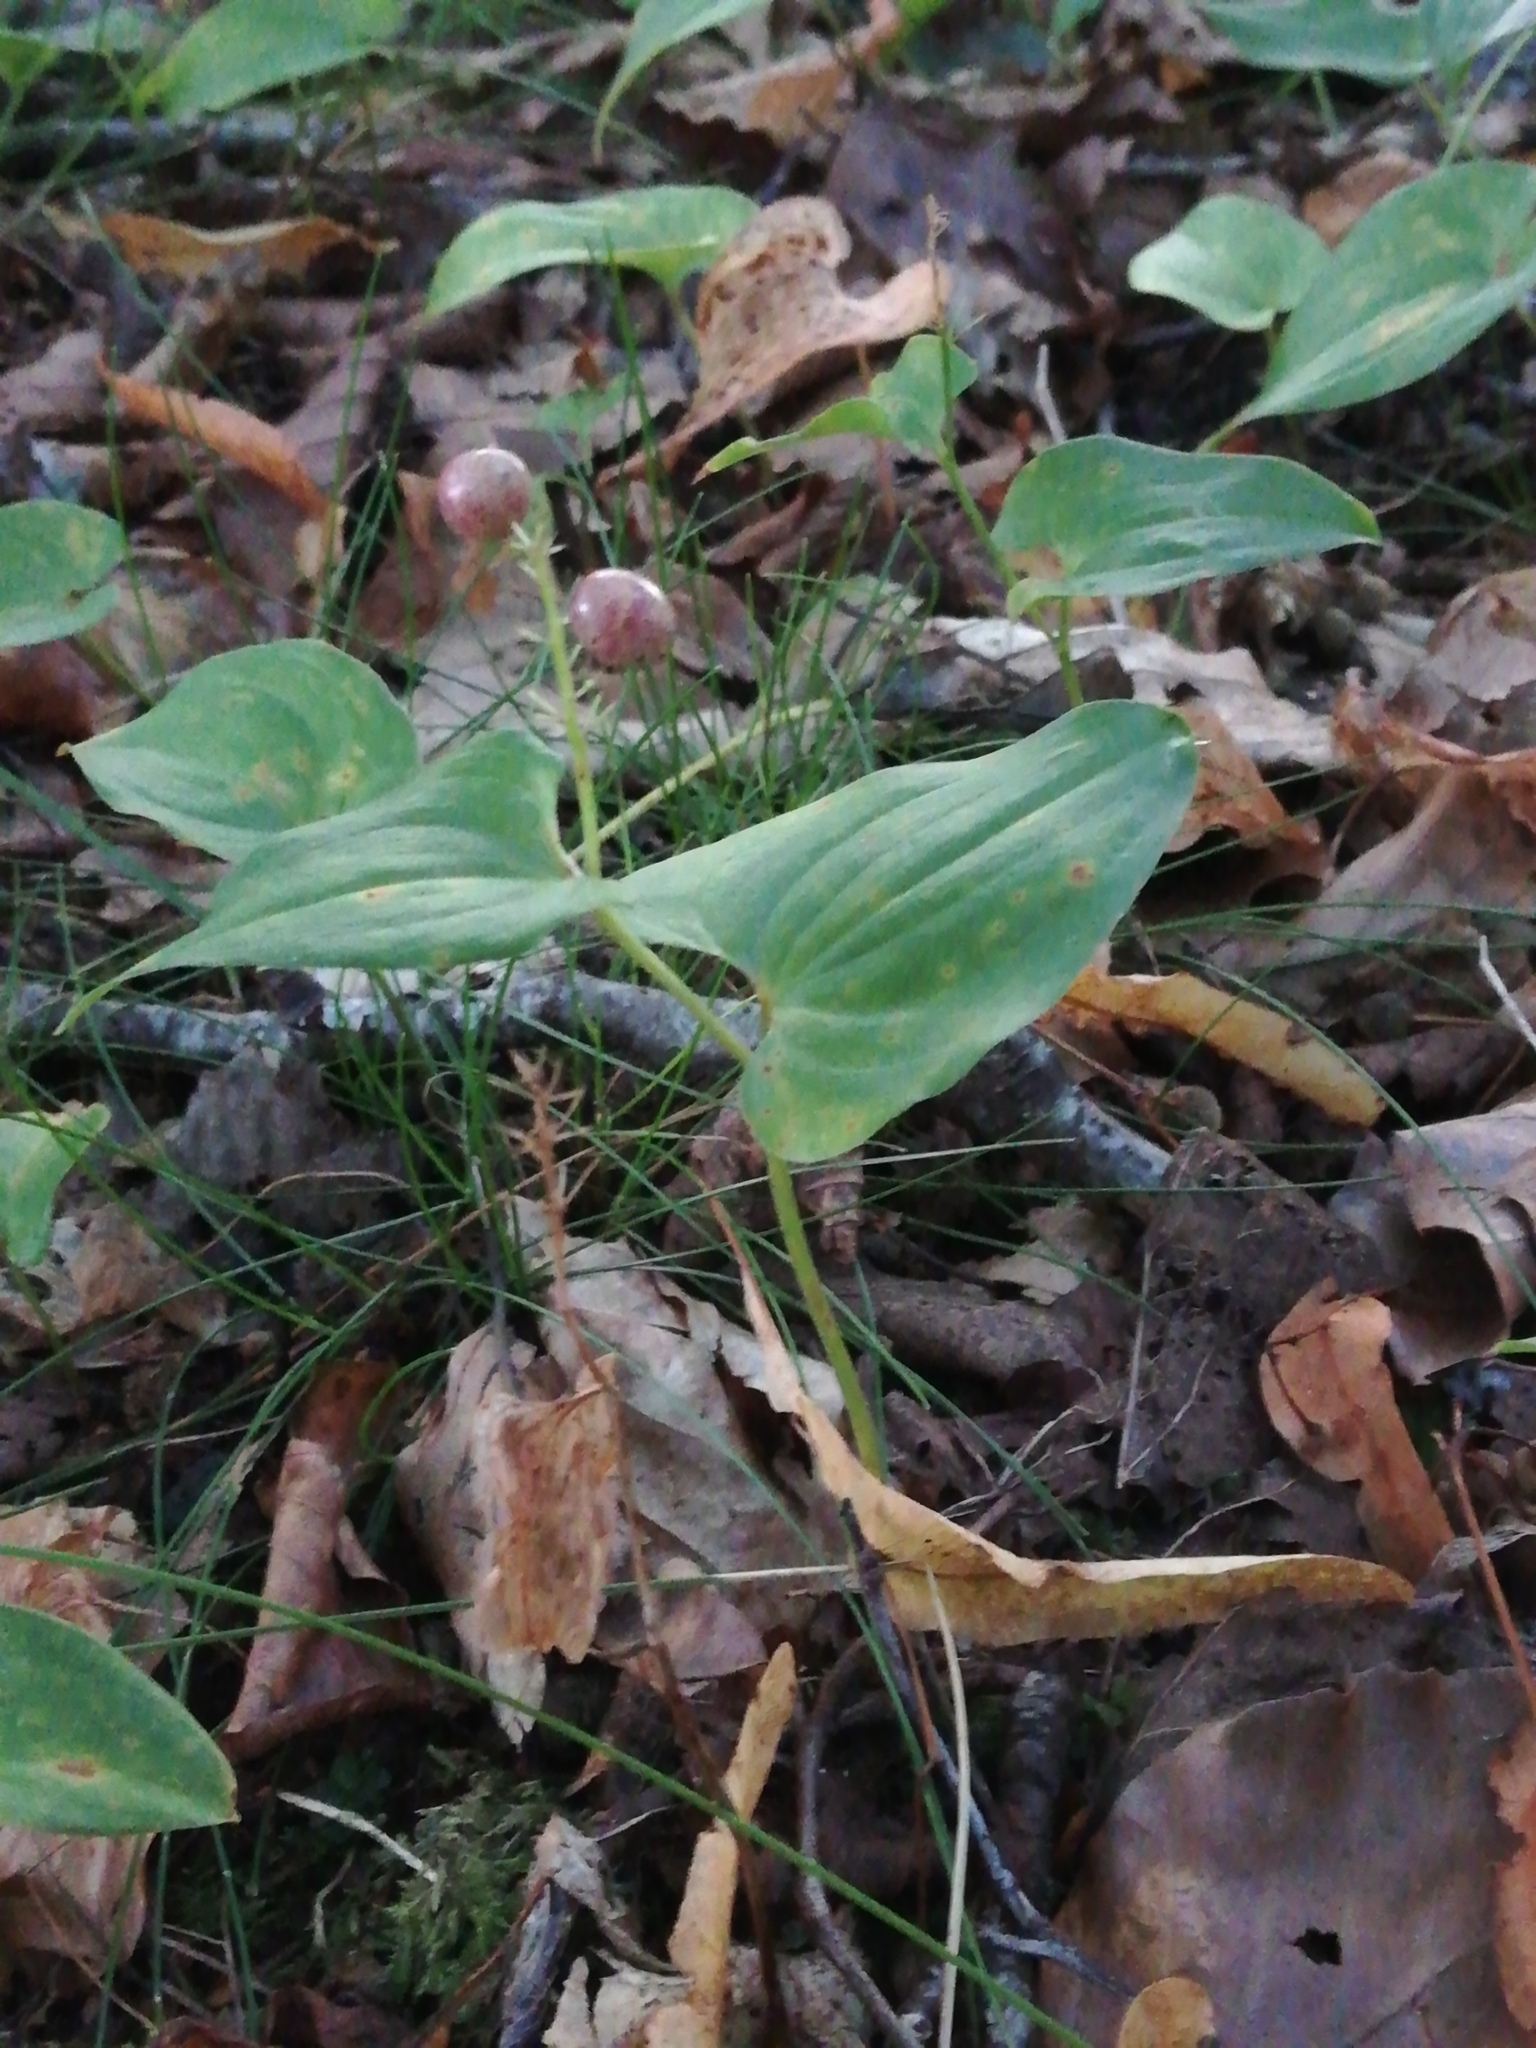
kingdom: Plantae
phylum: Tracheophyta
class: Liliopsida
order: Asparagales
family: Asparagaceae
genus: Maianthemum
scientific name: Maianthemum bifolium
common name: May lily
